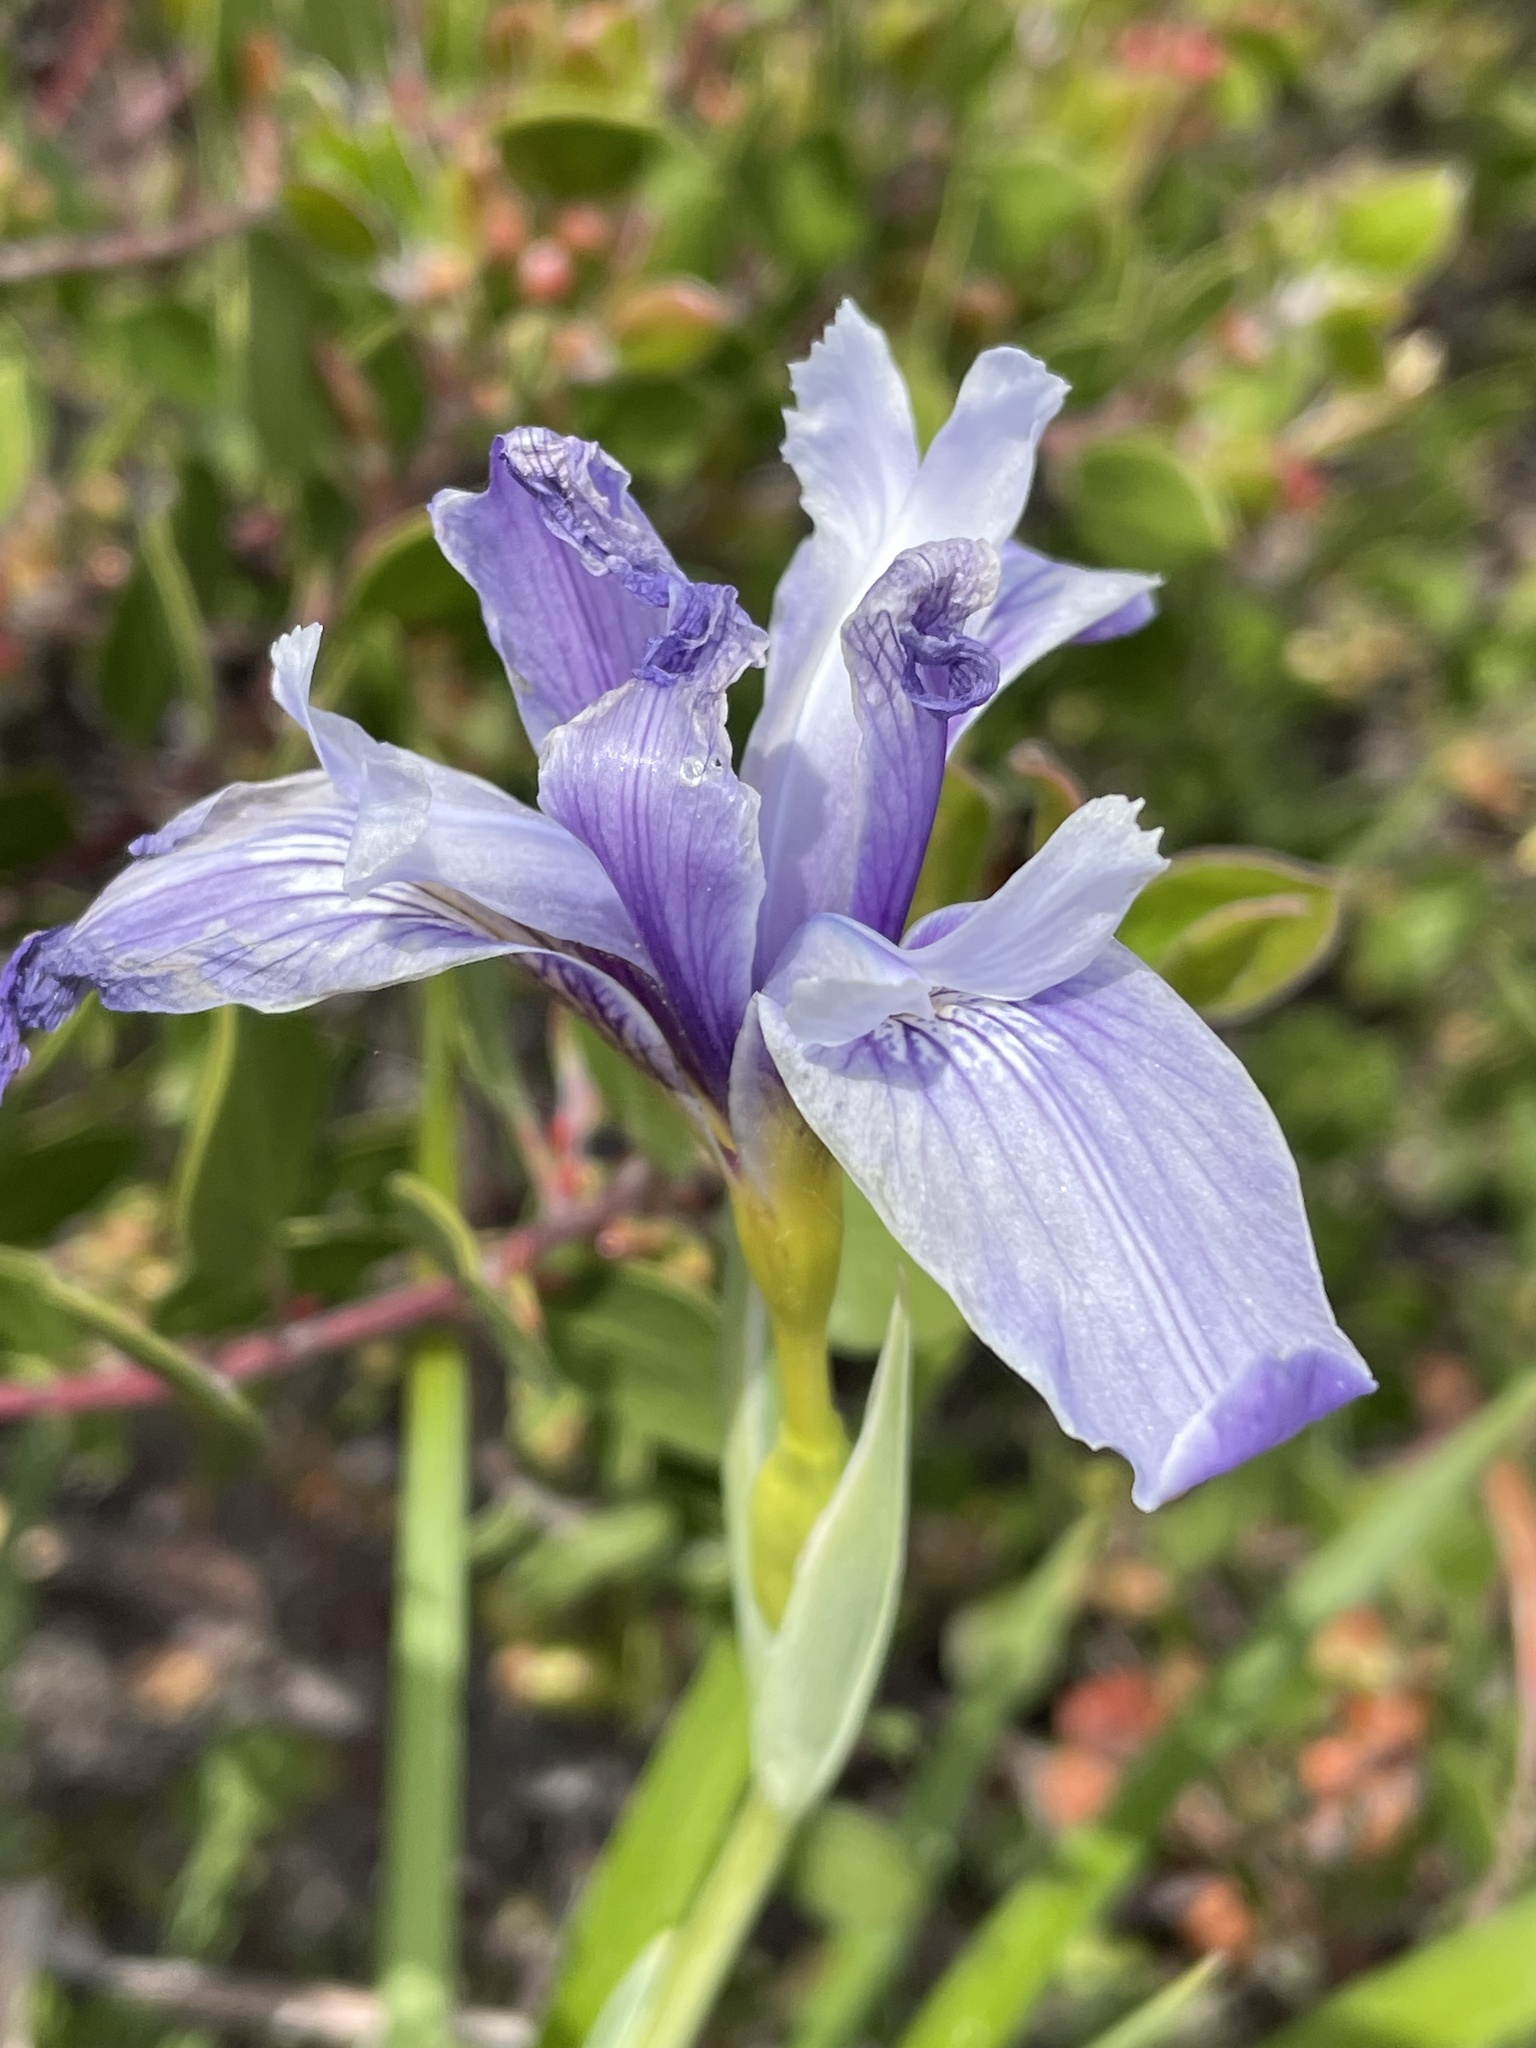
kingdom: Plantae
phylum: Tracheophyta
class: Liliopsida
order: Asparagales
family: Iridaceae
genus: Iris
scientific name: Iris douglasiana
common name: Marin iris
